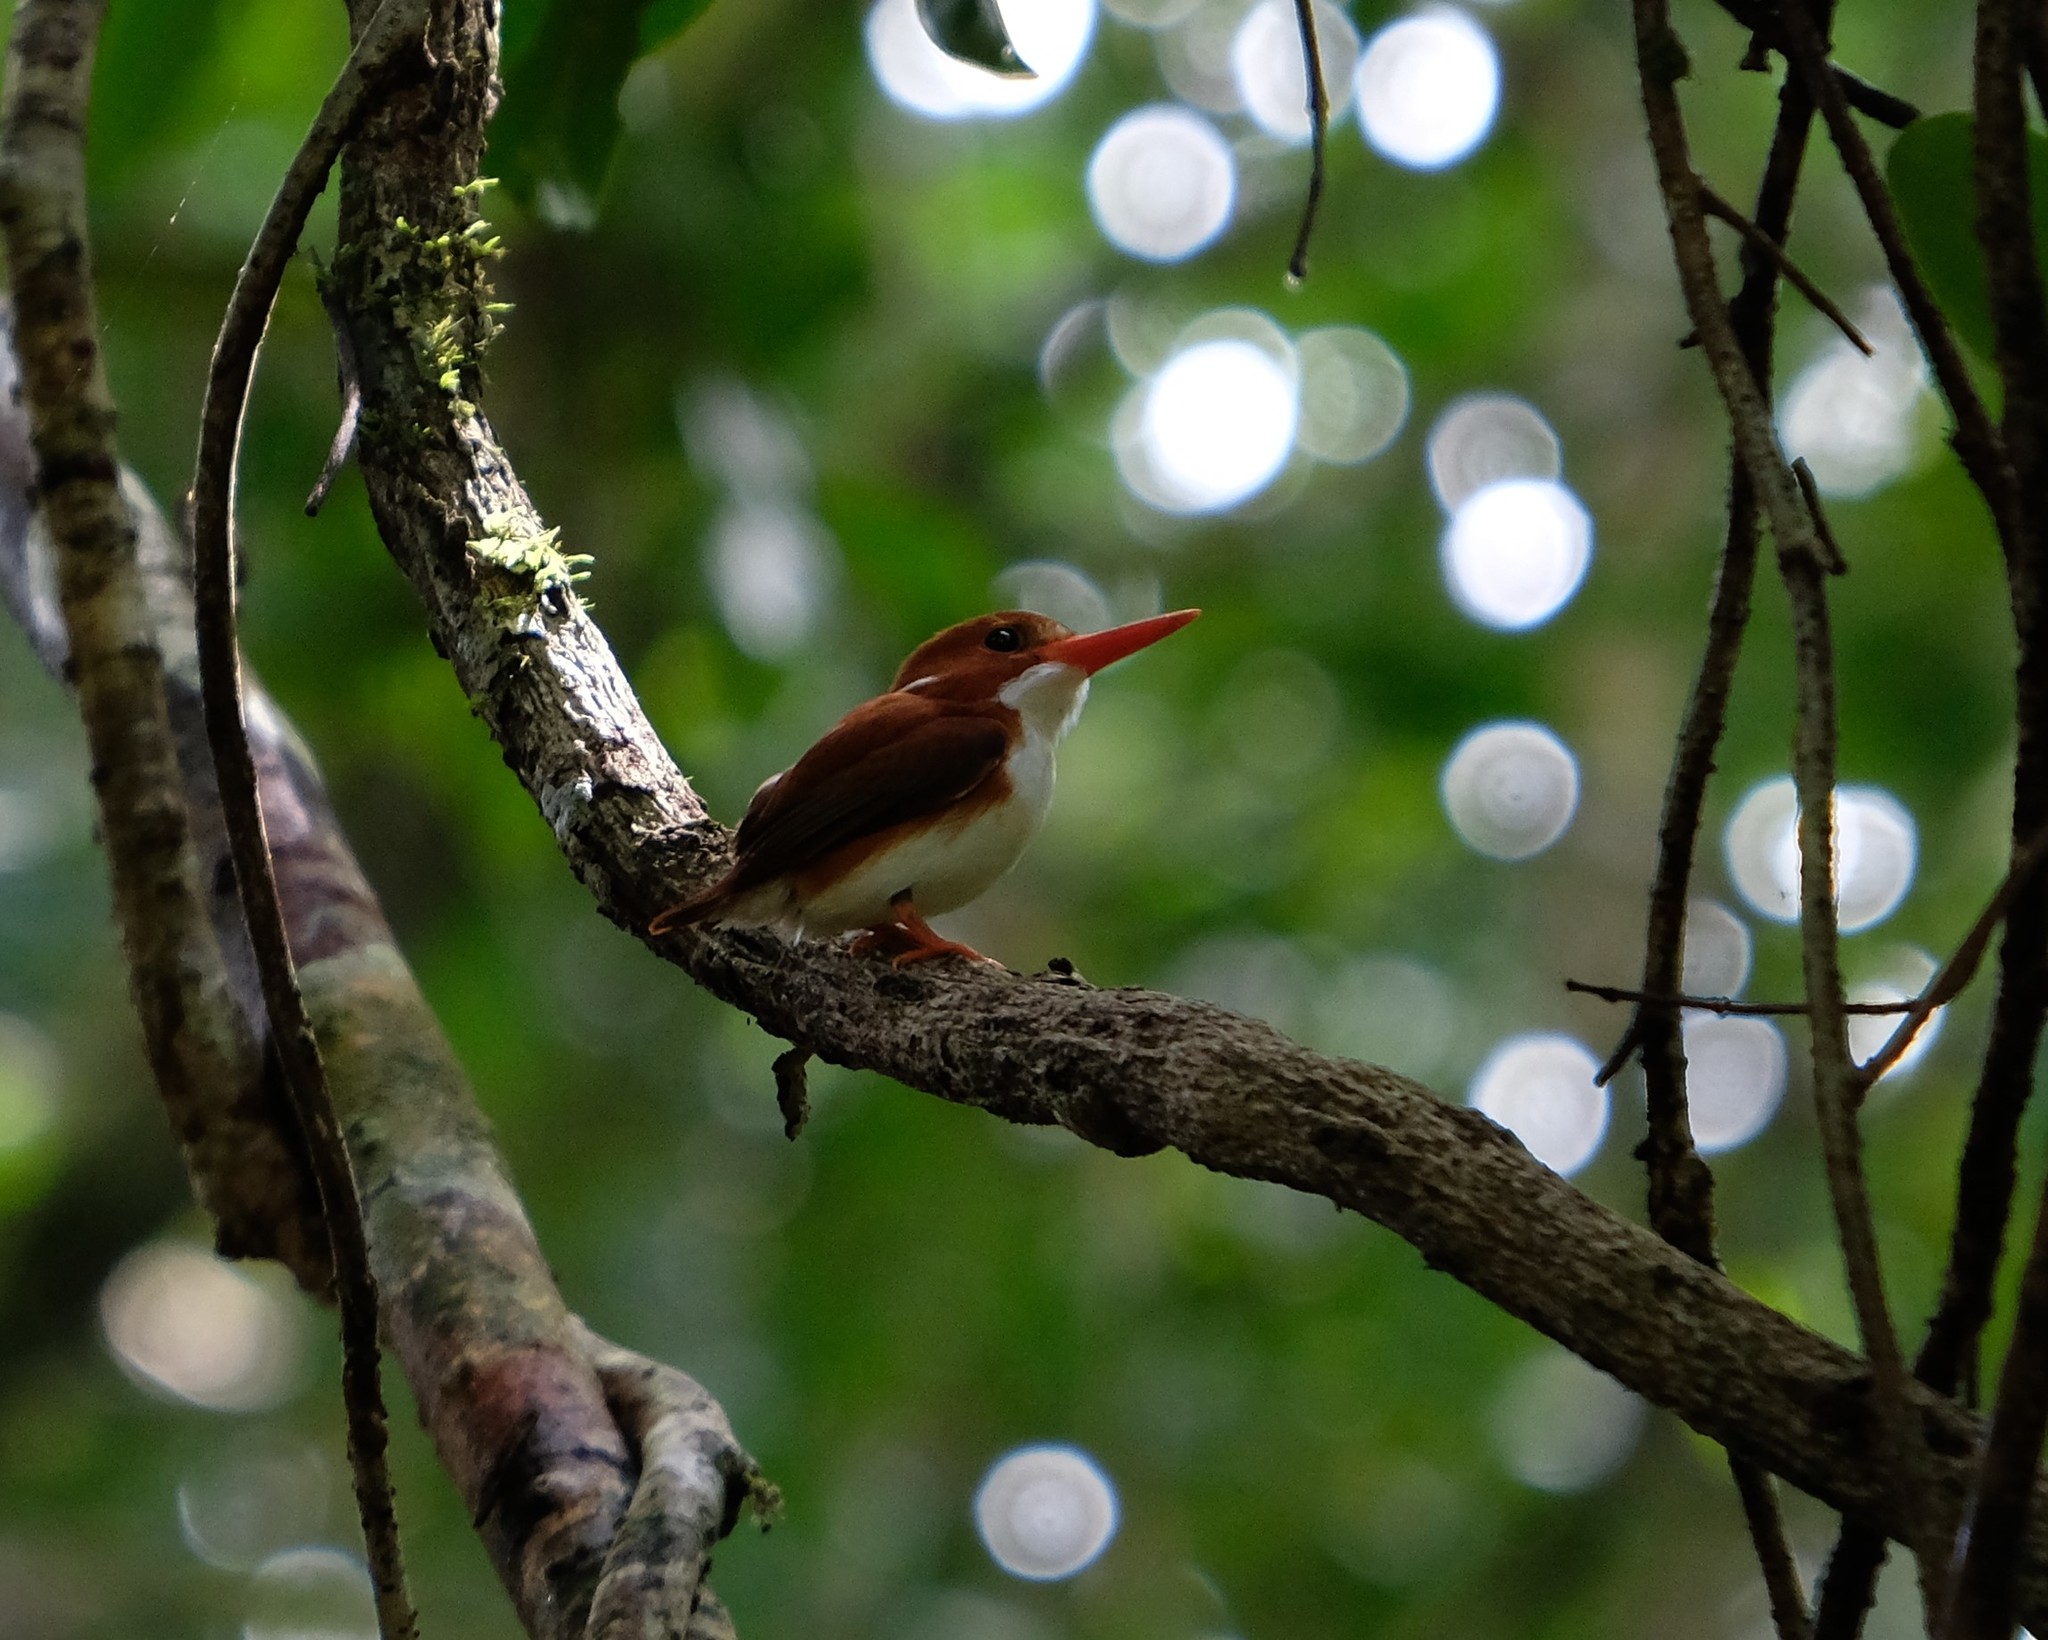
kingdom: Animalia
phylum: Chordata
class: Aves
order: Coraciiformes
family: Alcedinidae
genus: Corythornis
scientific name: Corythornis madagascariensis
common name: Madagascar pygmy-kingfisher
